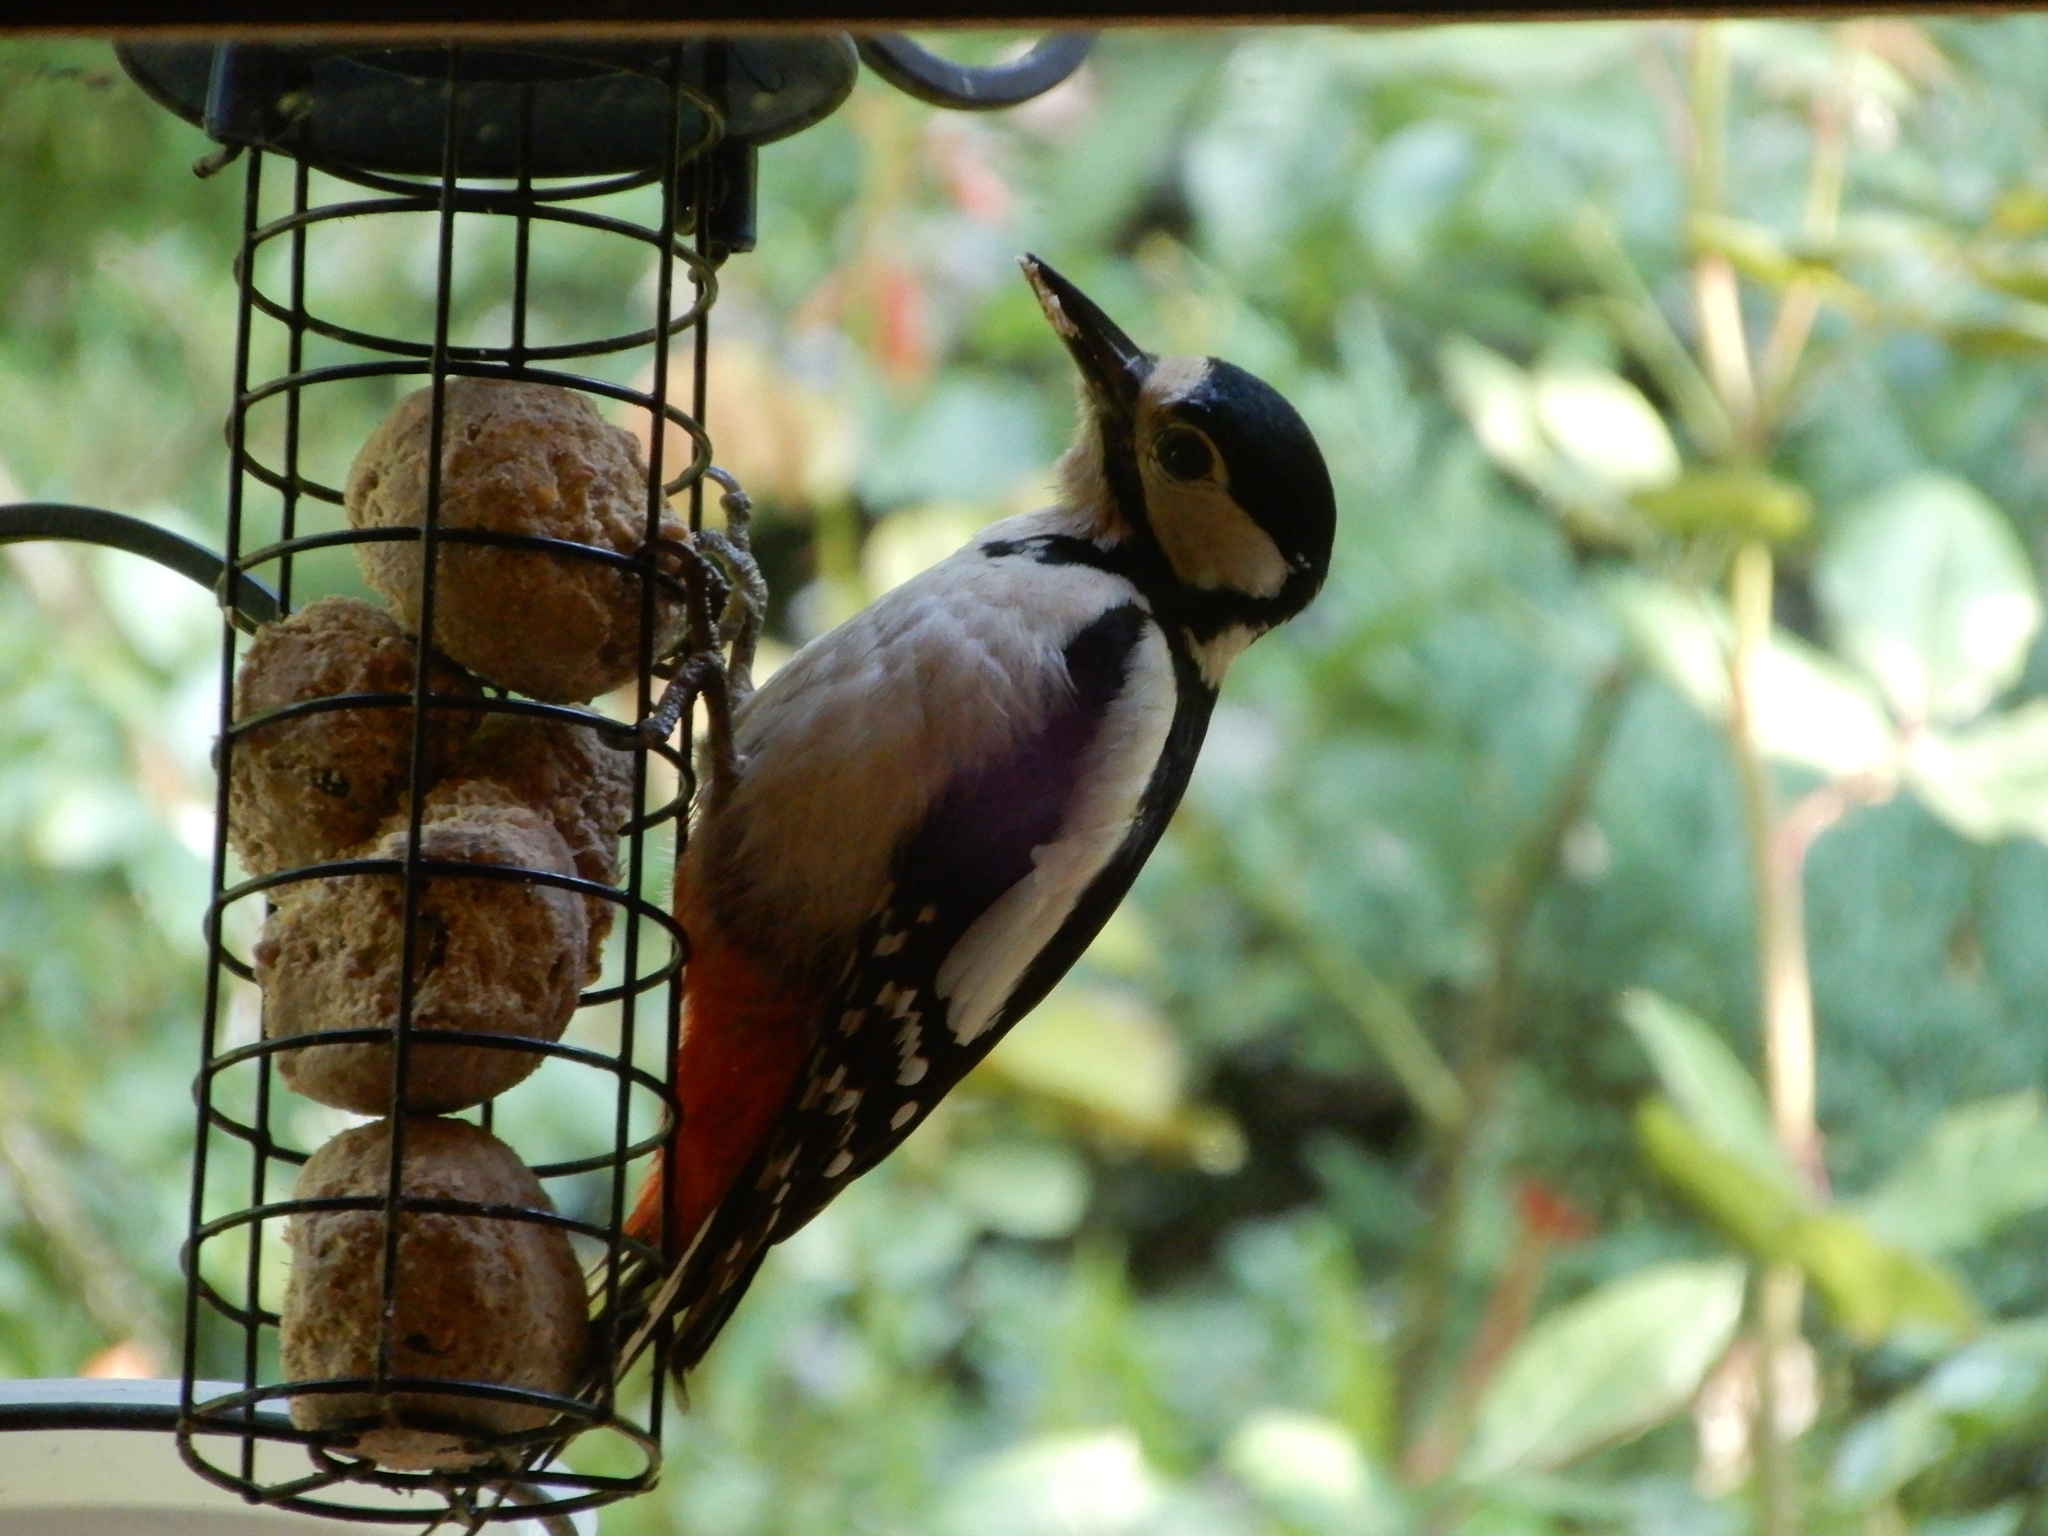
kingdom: Animalia
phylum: Chordata
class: Aves
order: Piciformes
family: Picidae
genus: Dendrocopos
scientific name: Dendrocopos major
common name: Great spotted woodpecker
